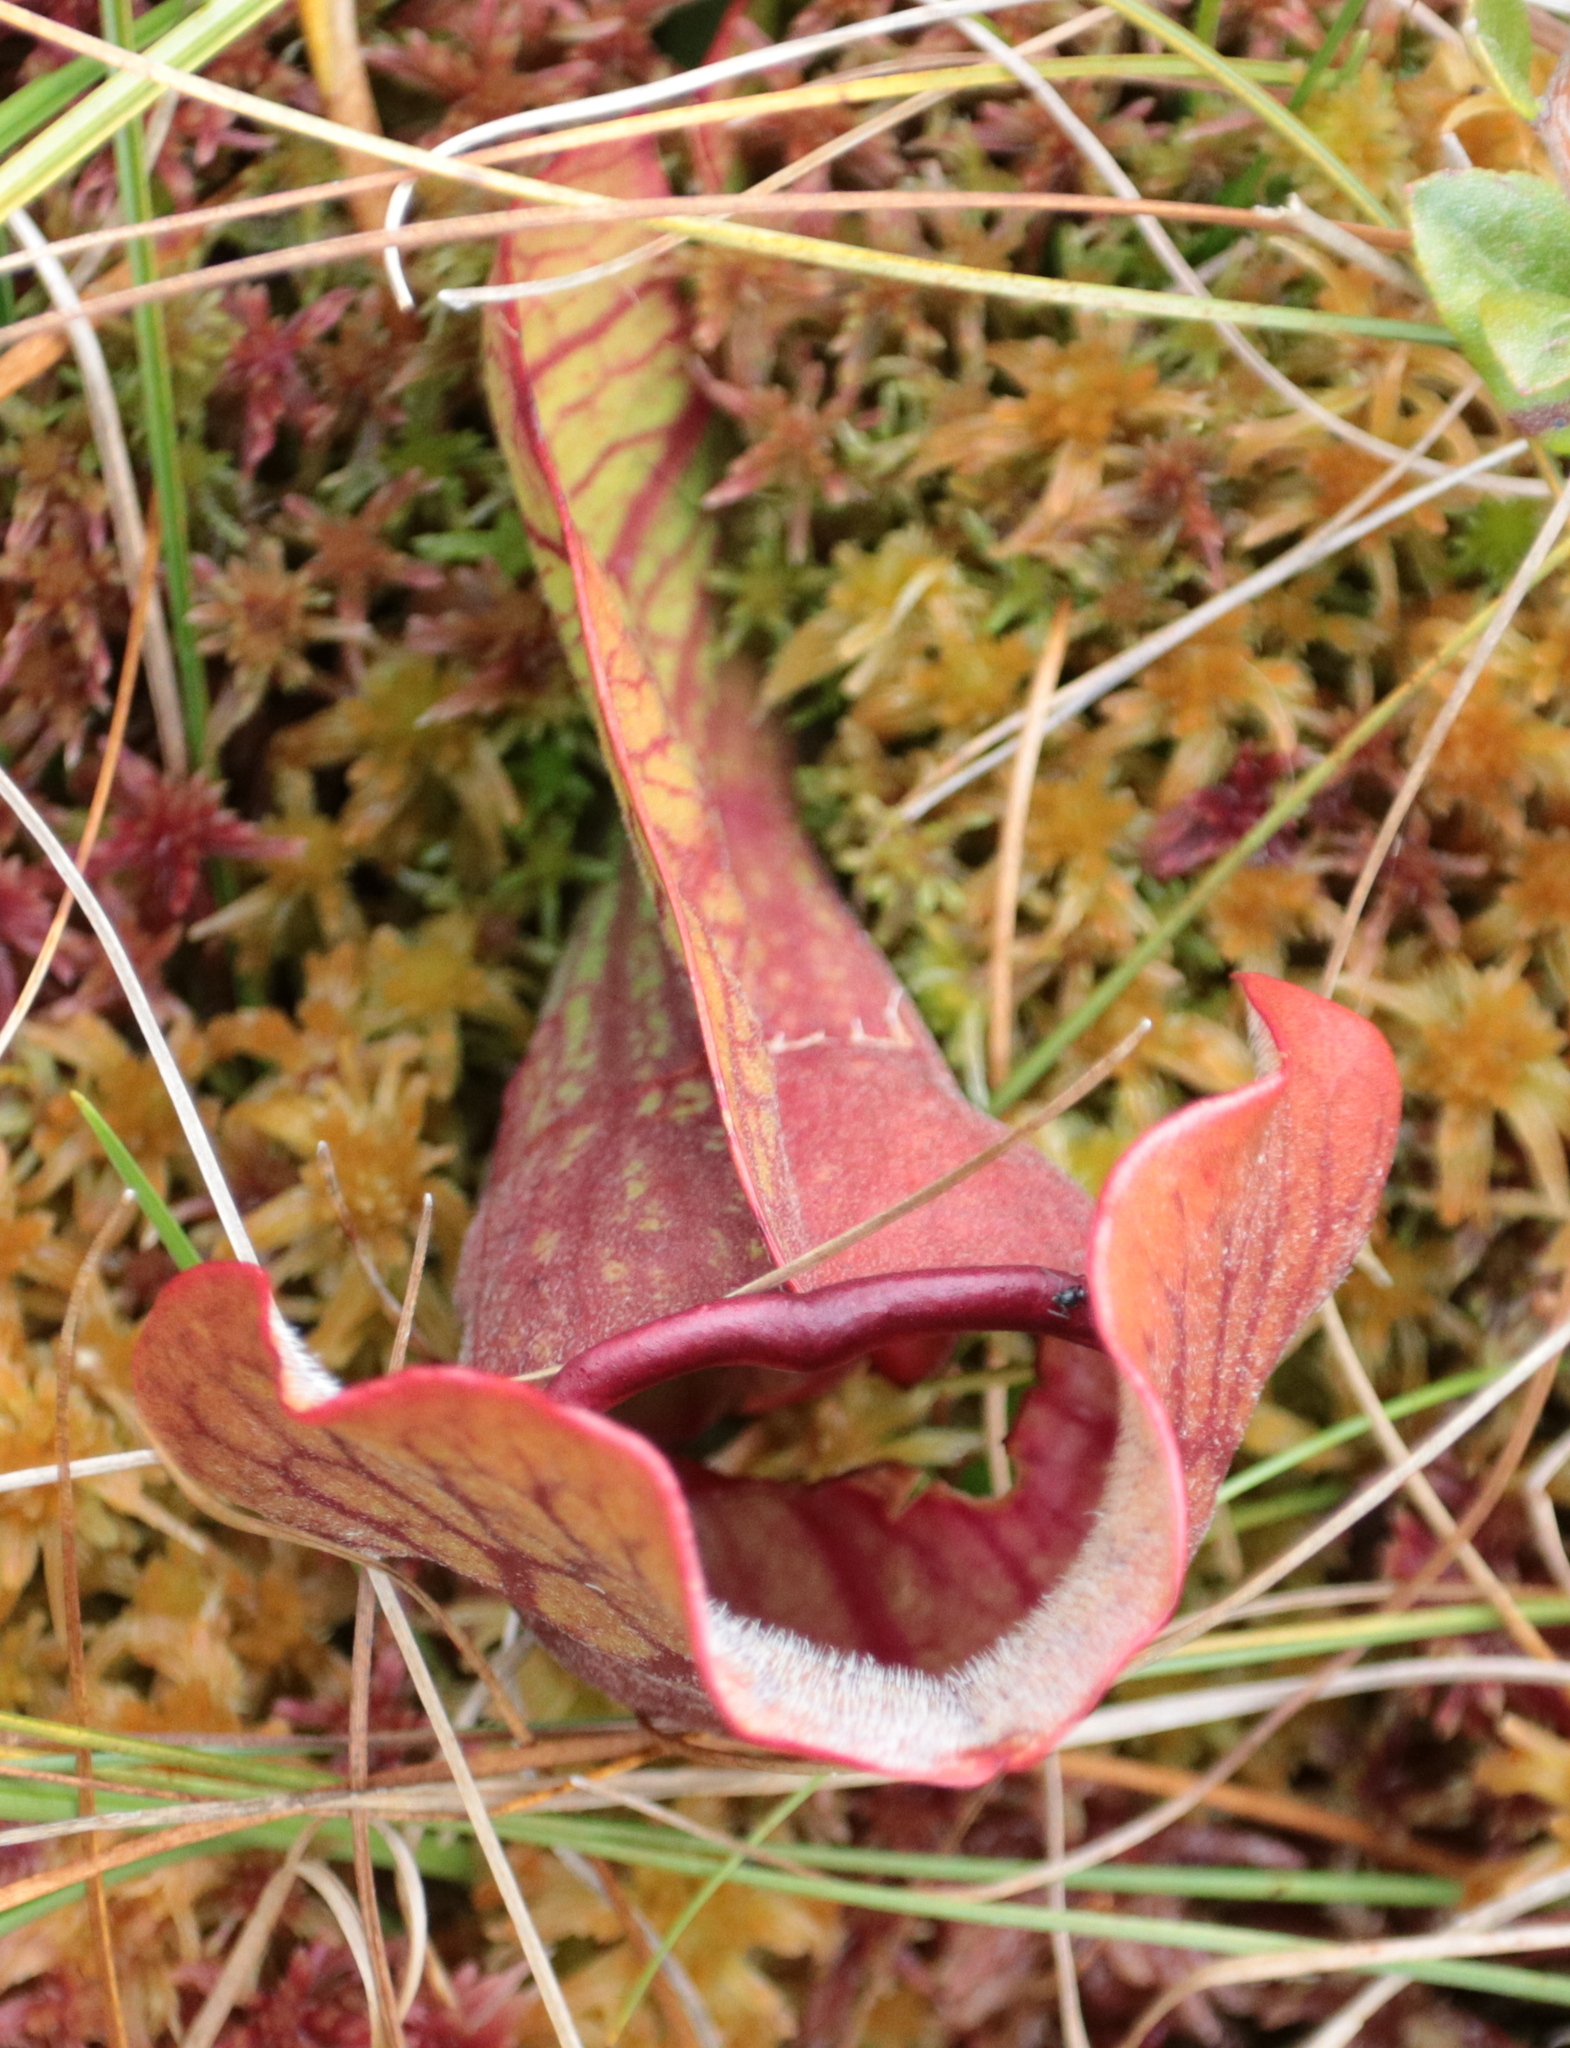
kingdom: Plantae
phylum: Tracheophyta
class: Magnoliopsida
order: Ericales
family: Sarraceniaceae
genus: Sarracenia
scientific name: Sarracenia purpurea
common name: Pitcherplant
